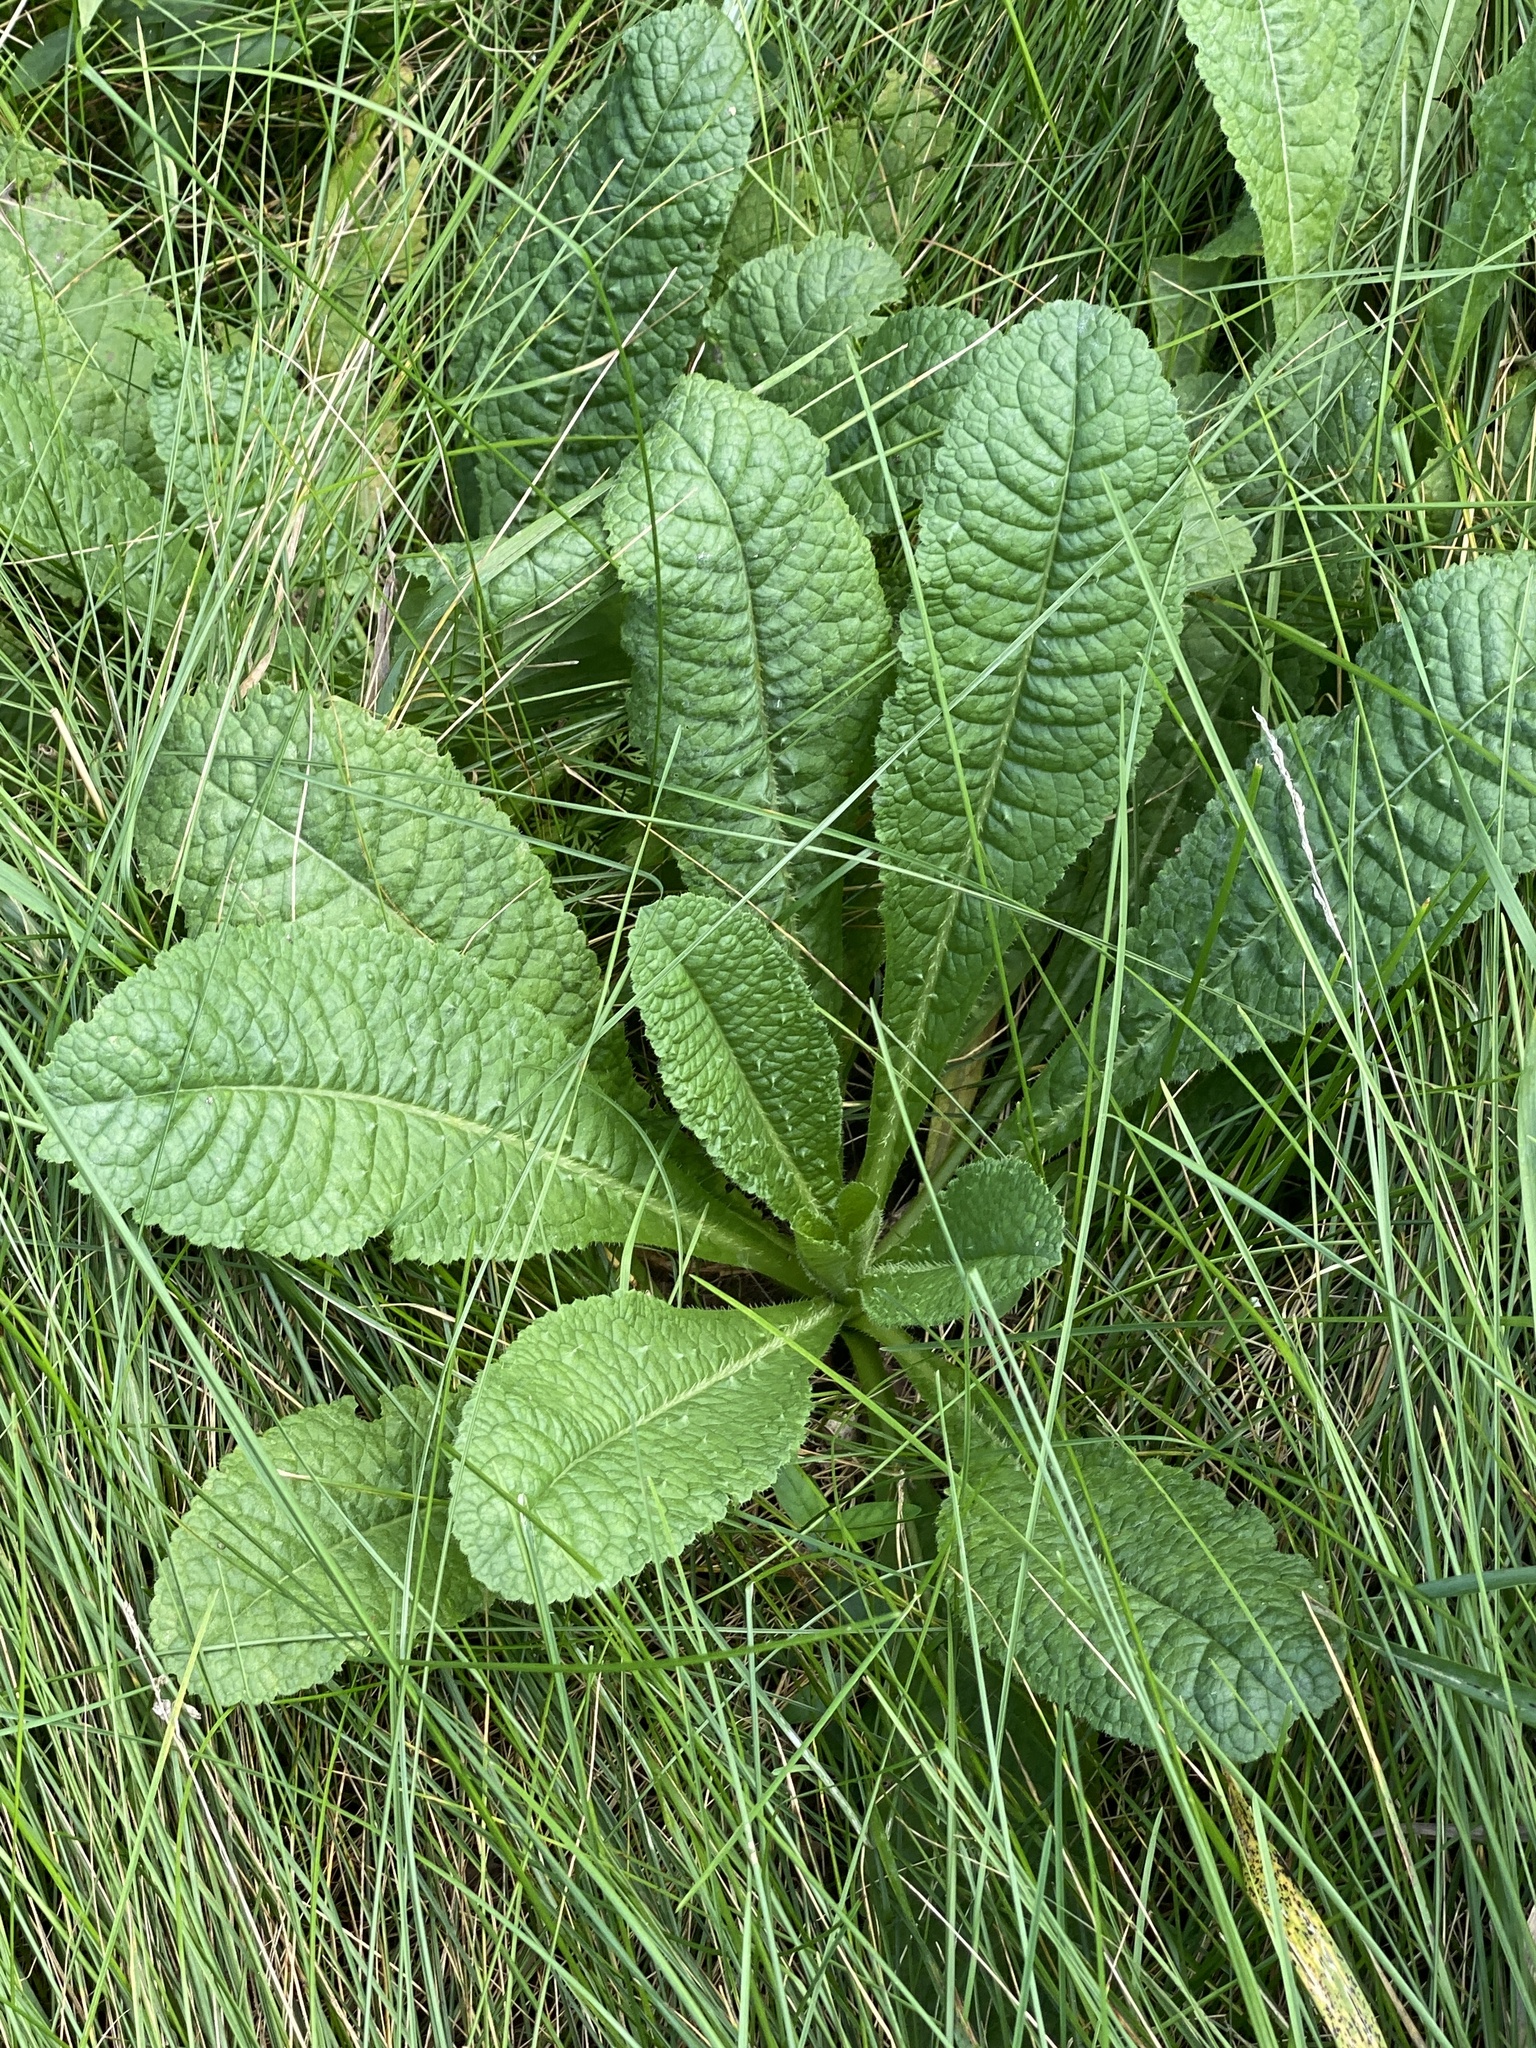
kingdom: Plantae
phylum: Tracheophyta
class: Magnoliopsida
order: Dipsacales
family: Caprifoliaceae
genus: Dipsacus
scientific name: Dipsacus fullonum
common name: Teasel
